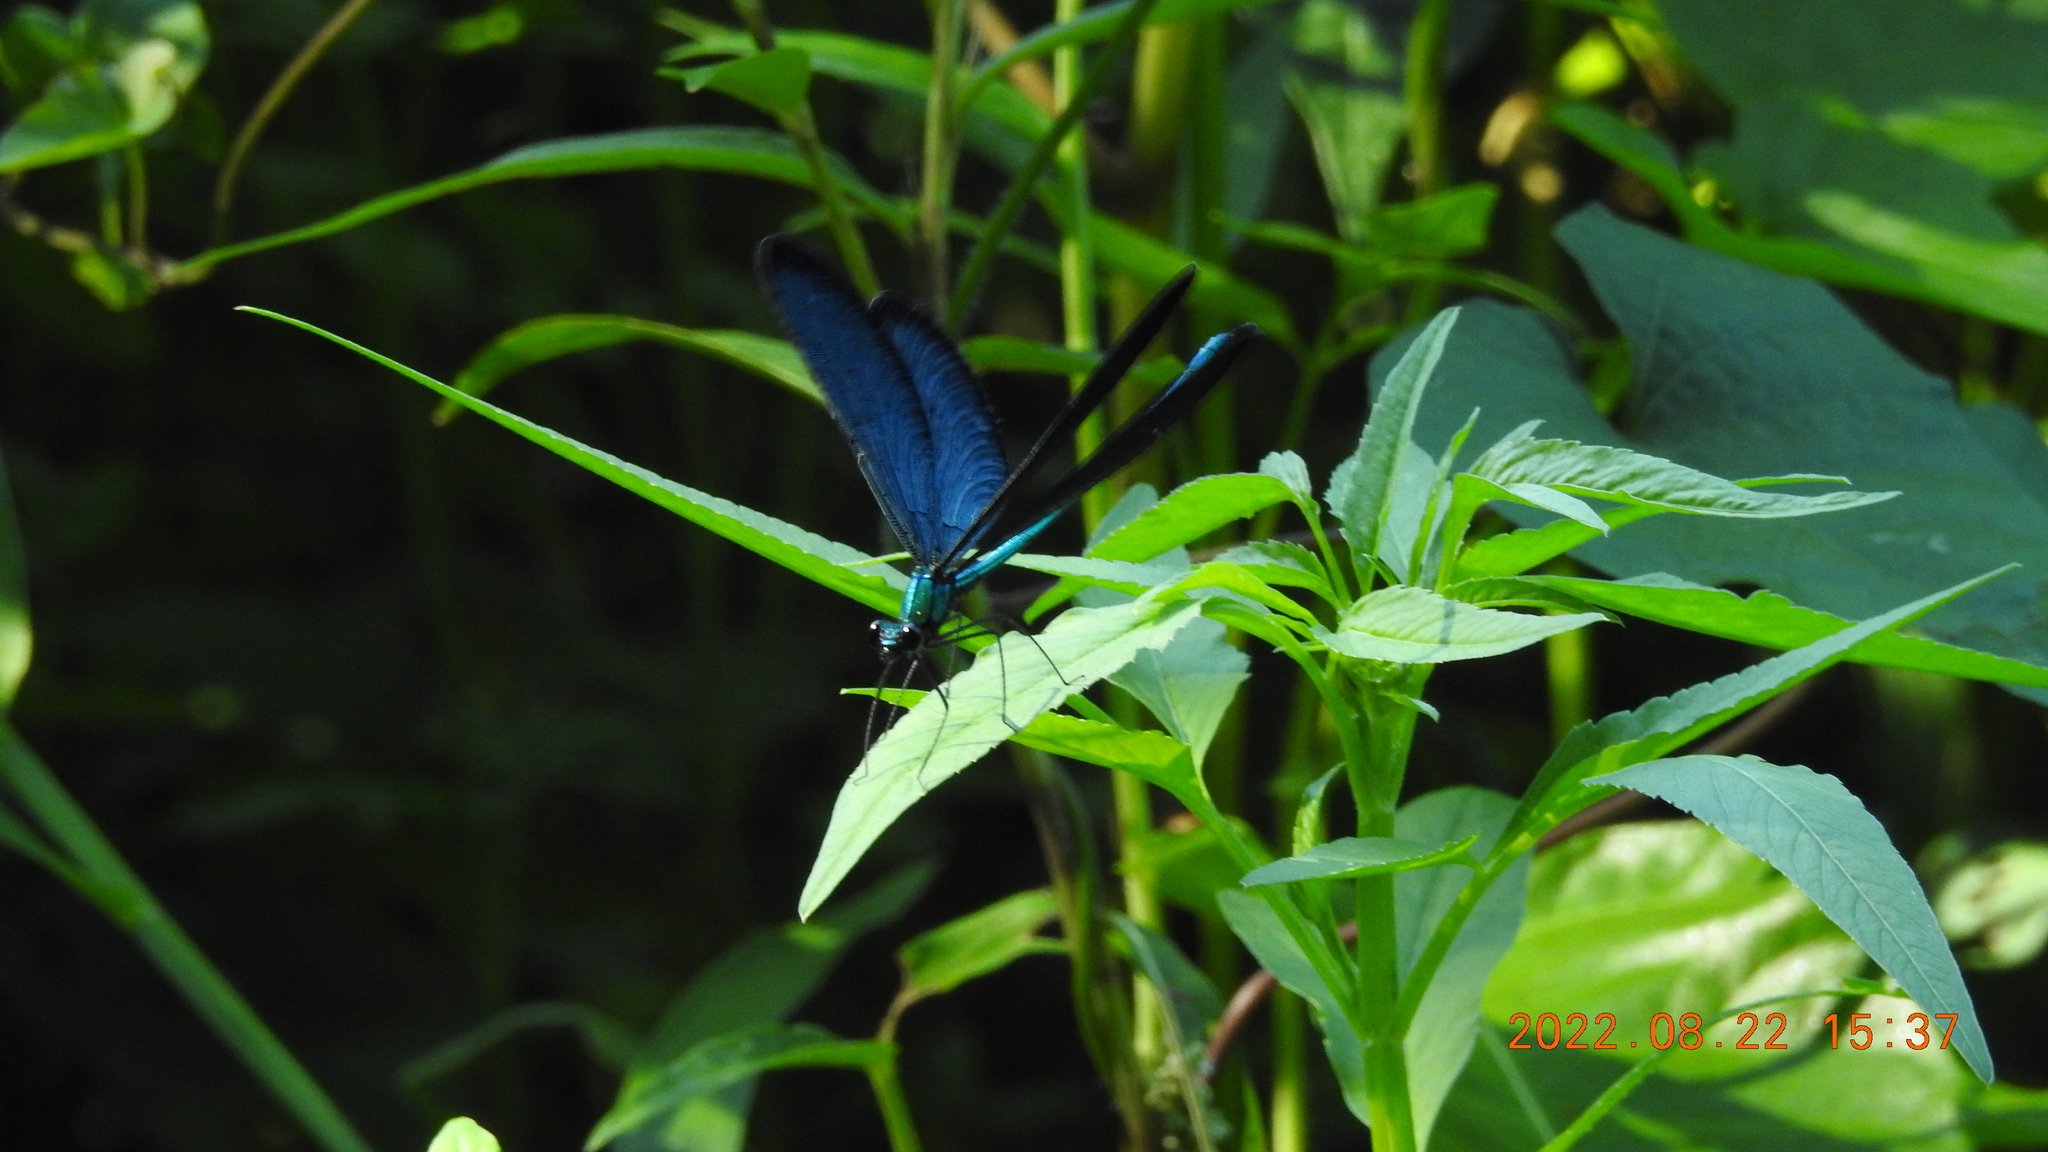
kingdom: Animalia
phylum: Arthropoda
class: Insecta
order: Odonata
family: Calopterygidae
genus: Matrona
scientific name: Matrona cyanoptera
